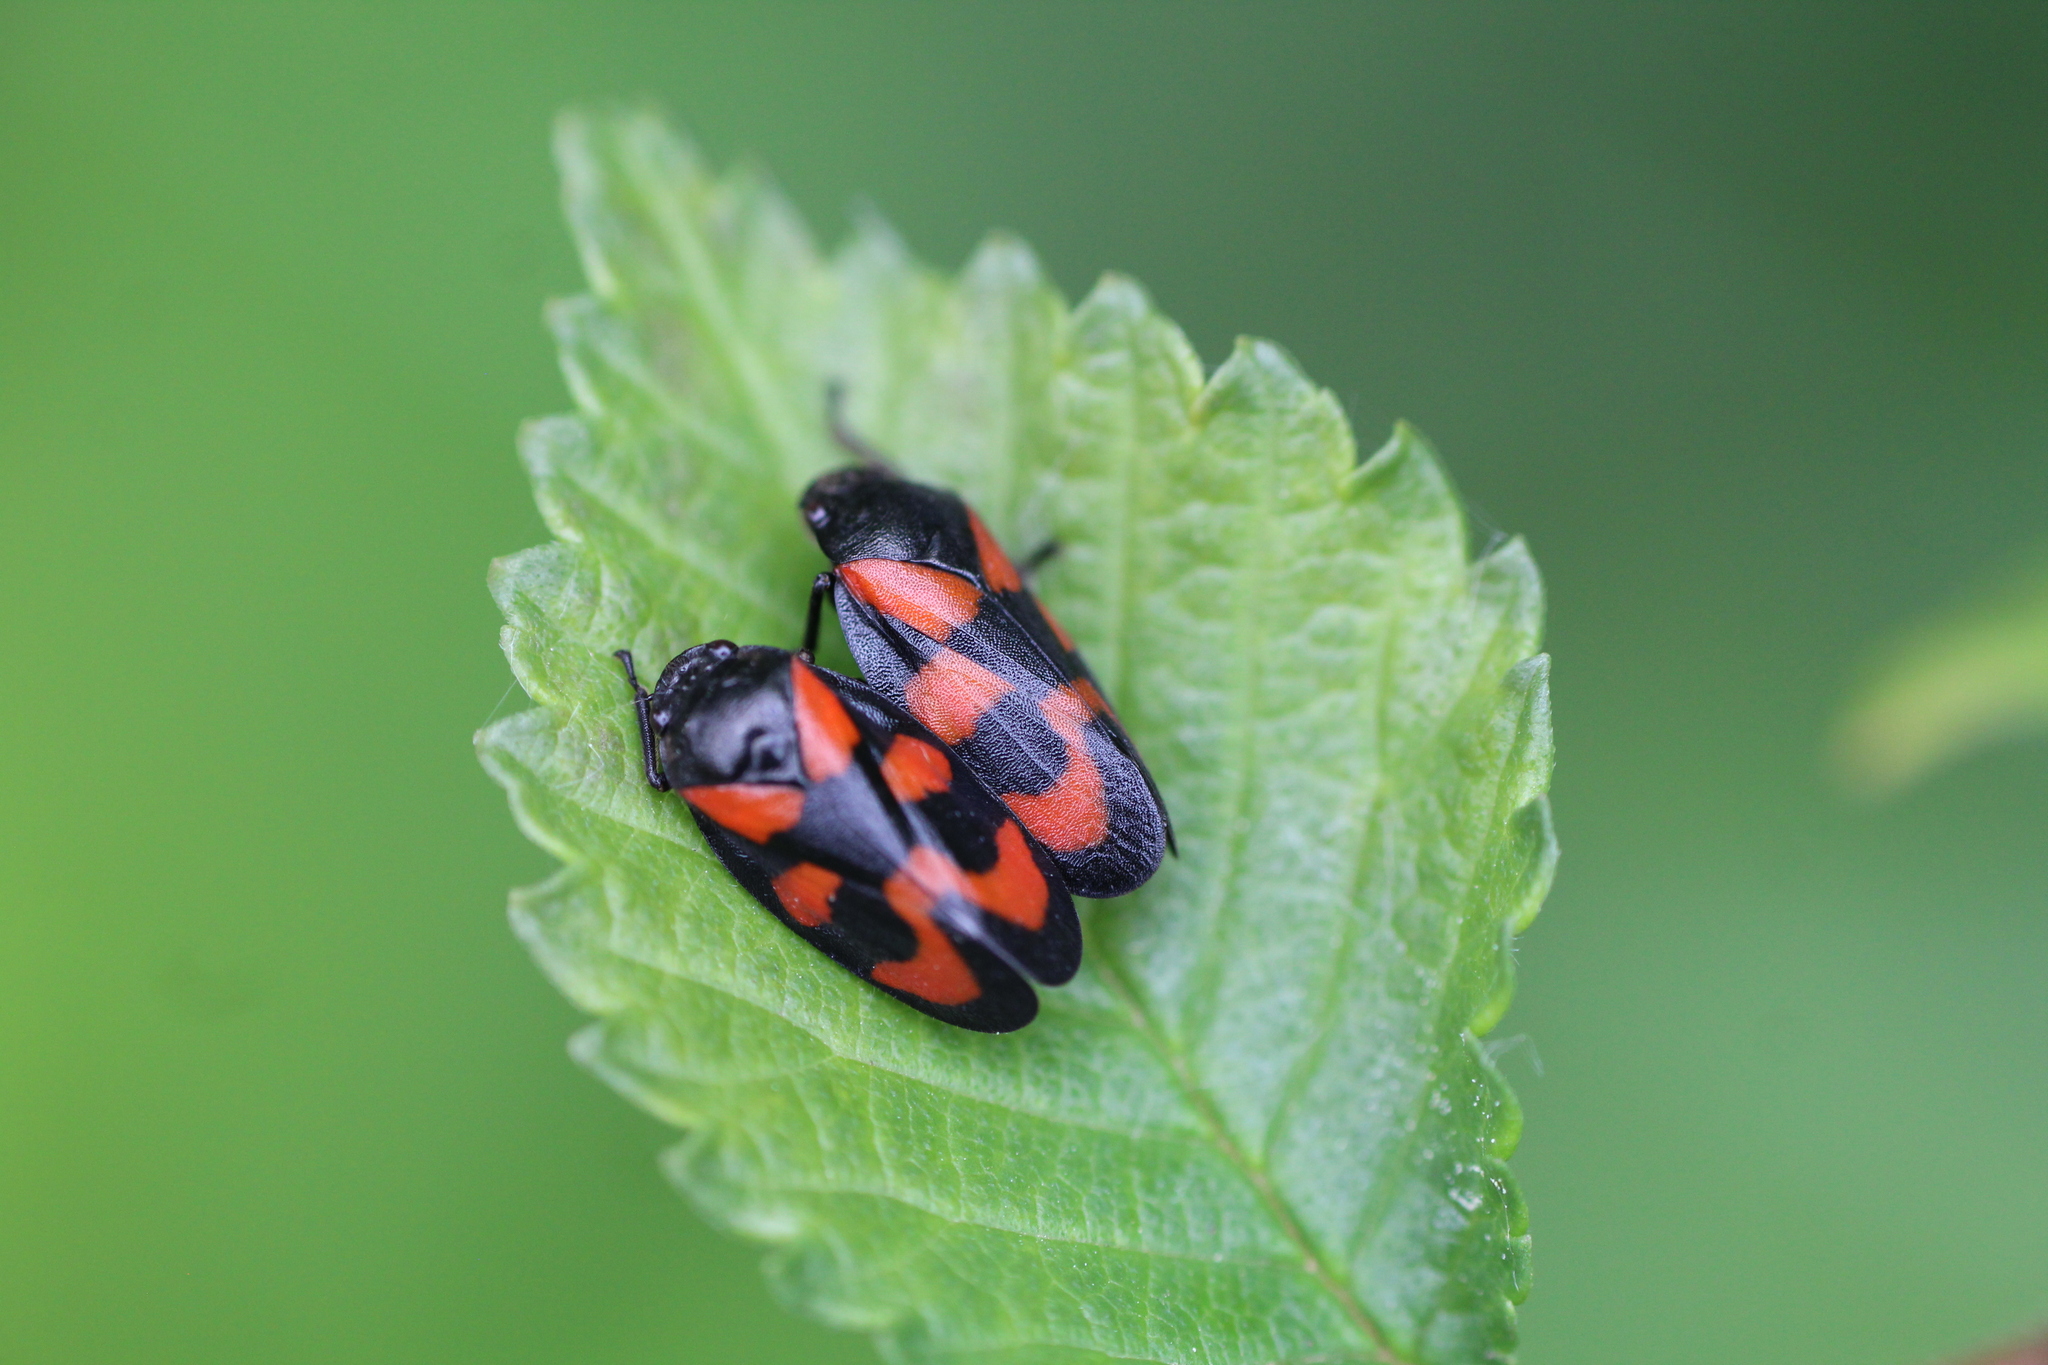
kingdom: Animalia
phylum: Arthropoda
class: Insecta
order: Hemiptera
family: Cercopidae
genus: Cercopis
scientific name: Cercopis vulnerata
